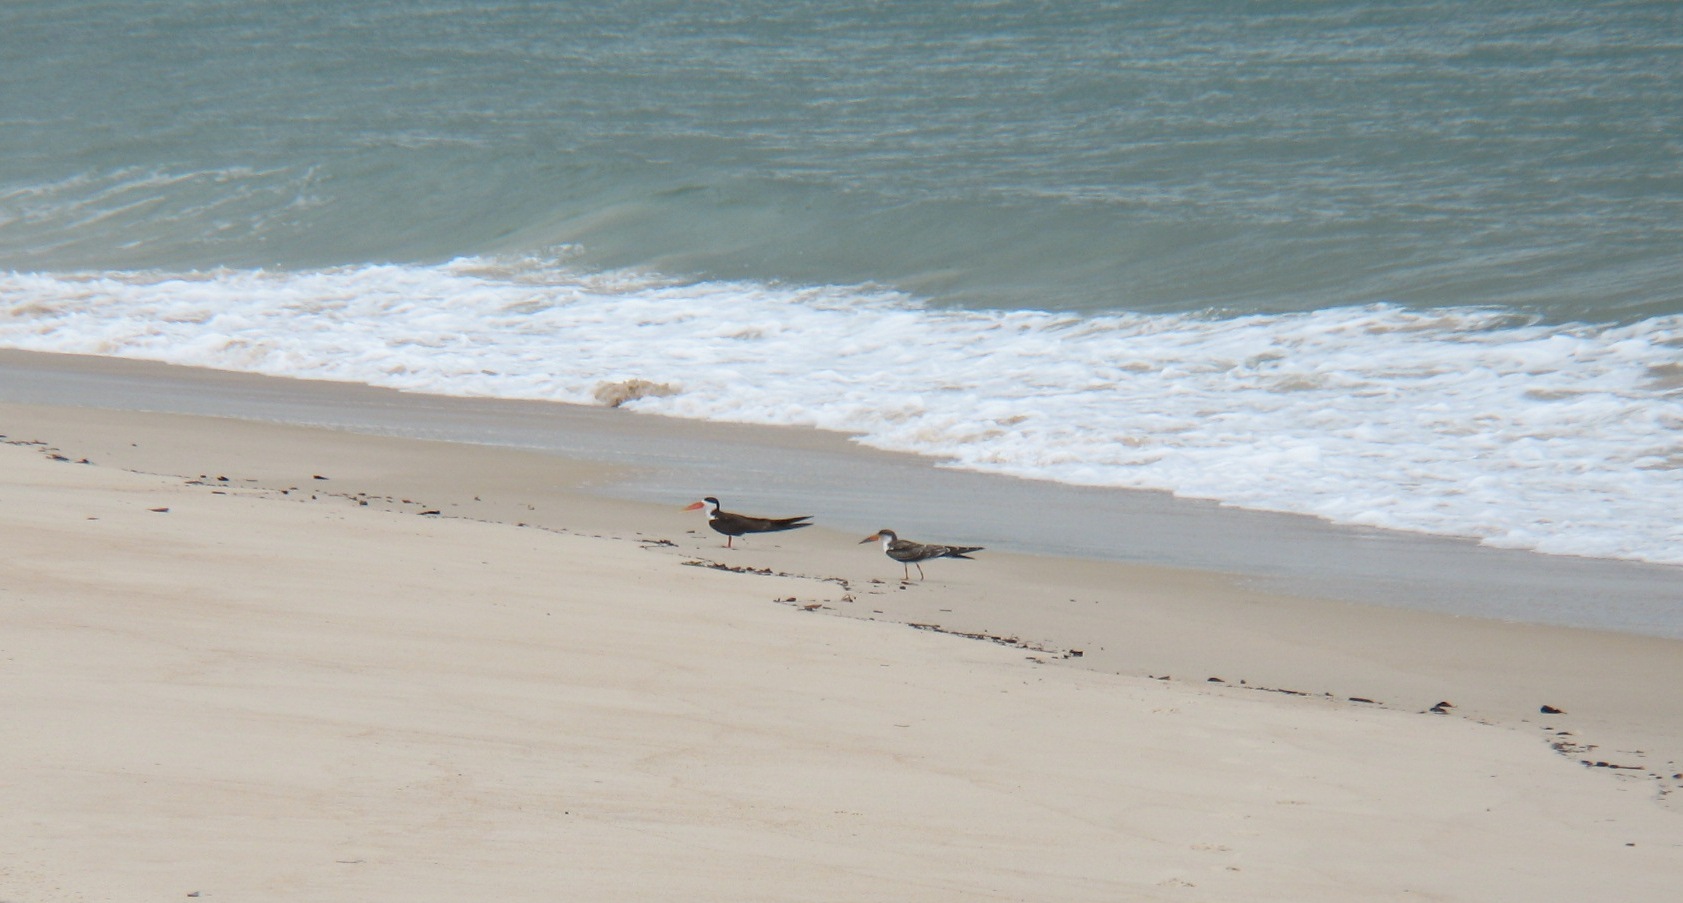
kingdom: Animalia
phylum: Chordata
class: Aves
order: Charadriiformes
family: Laridae
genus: Rynchops
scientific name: Rynchops flavirostris
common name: African skimmer
